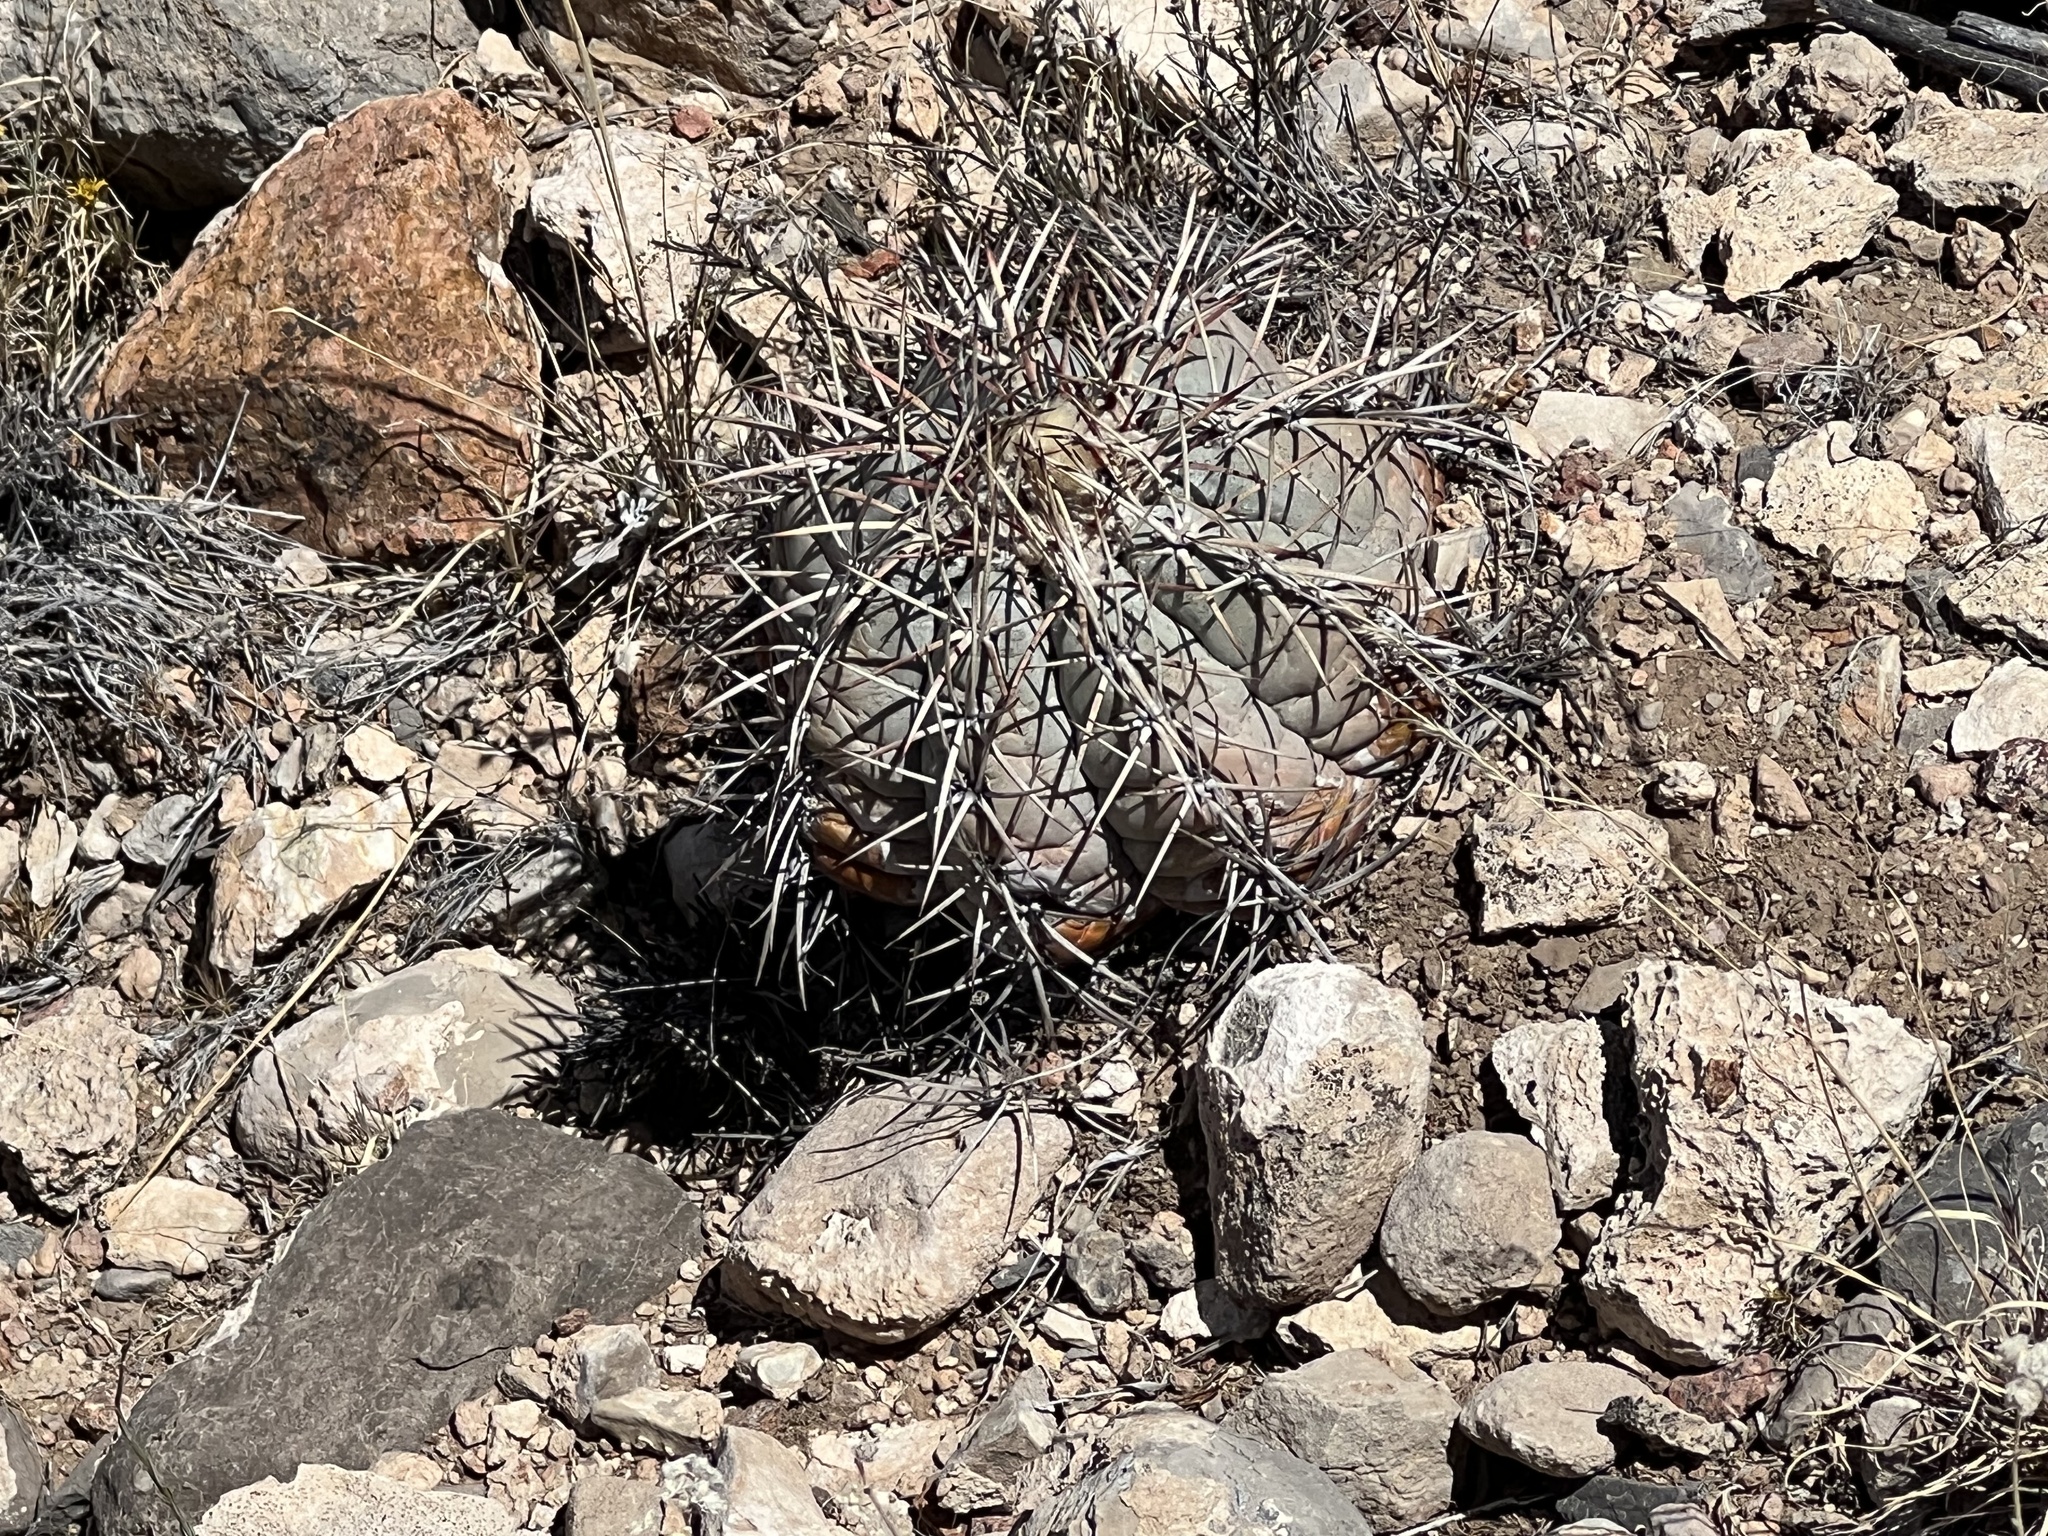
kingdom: Plantae
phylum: Tracheophyta
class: Magnoliopsida
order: Caryophyllales
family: Cactaceae
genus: Echinocactus
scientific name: Echinocactus horizonthalonius
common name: Devilshead
